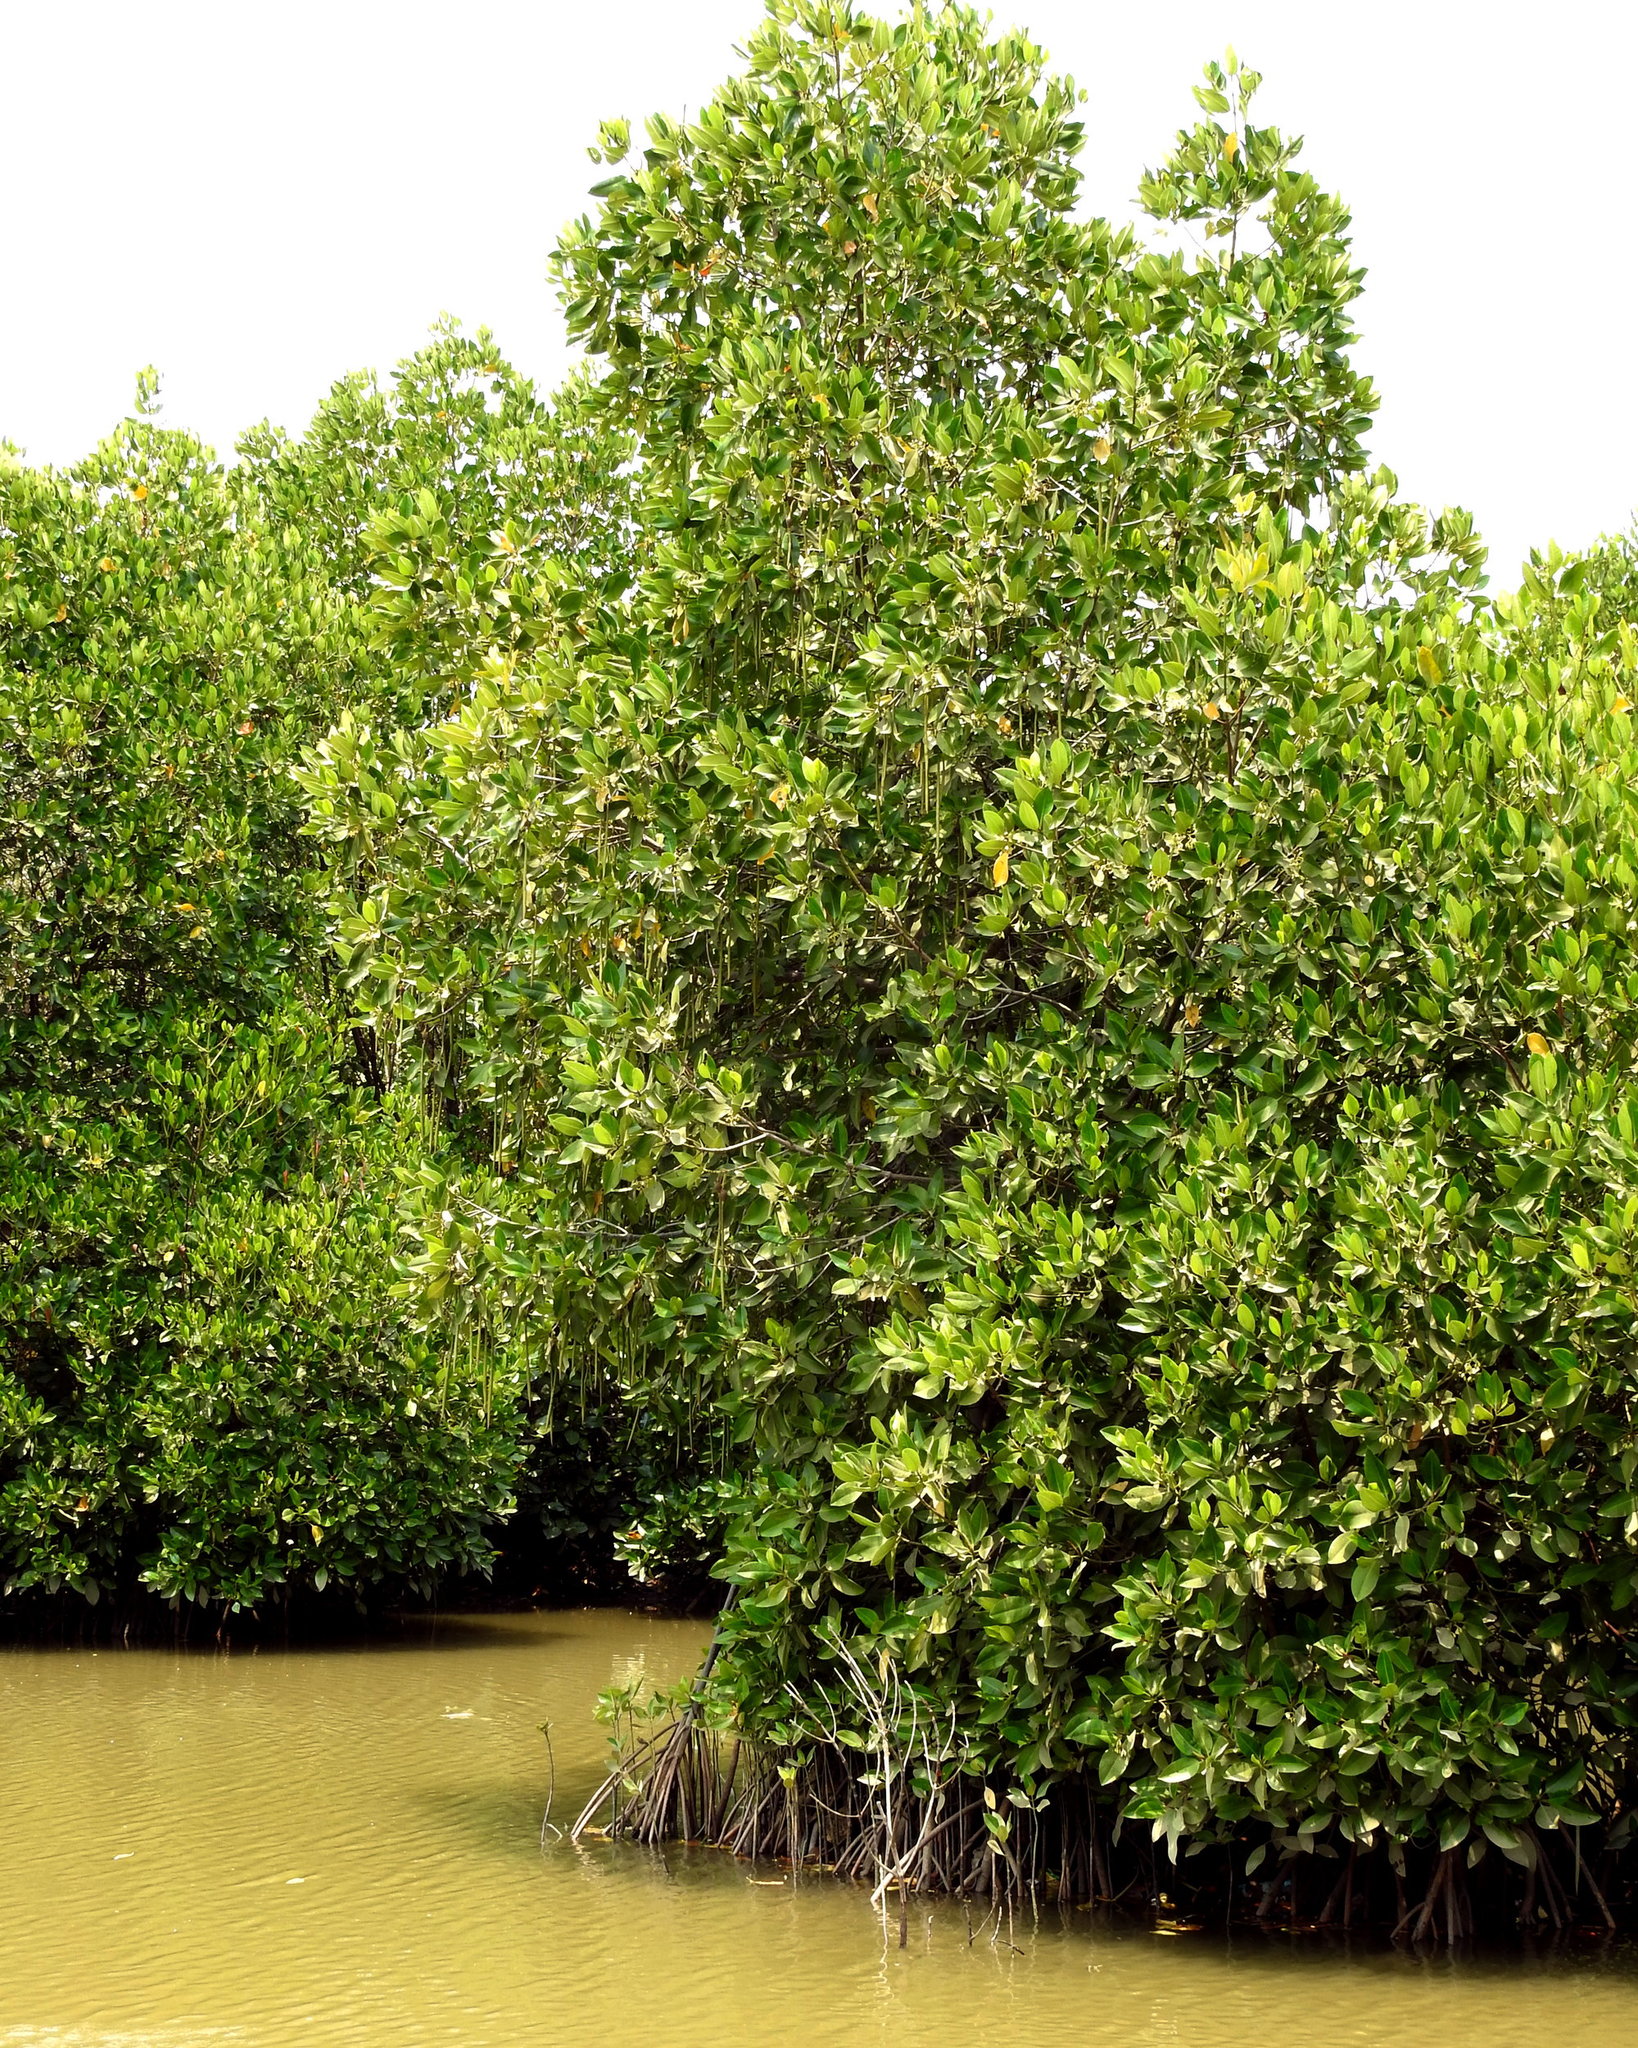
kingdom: Plantae
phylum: Tracheophyta
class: Magnoliopsida
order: Malpighiales
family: Rhizophoraceae
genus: Rhizophora
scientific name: Rhizophora stylosa
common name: Red mangrove
